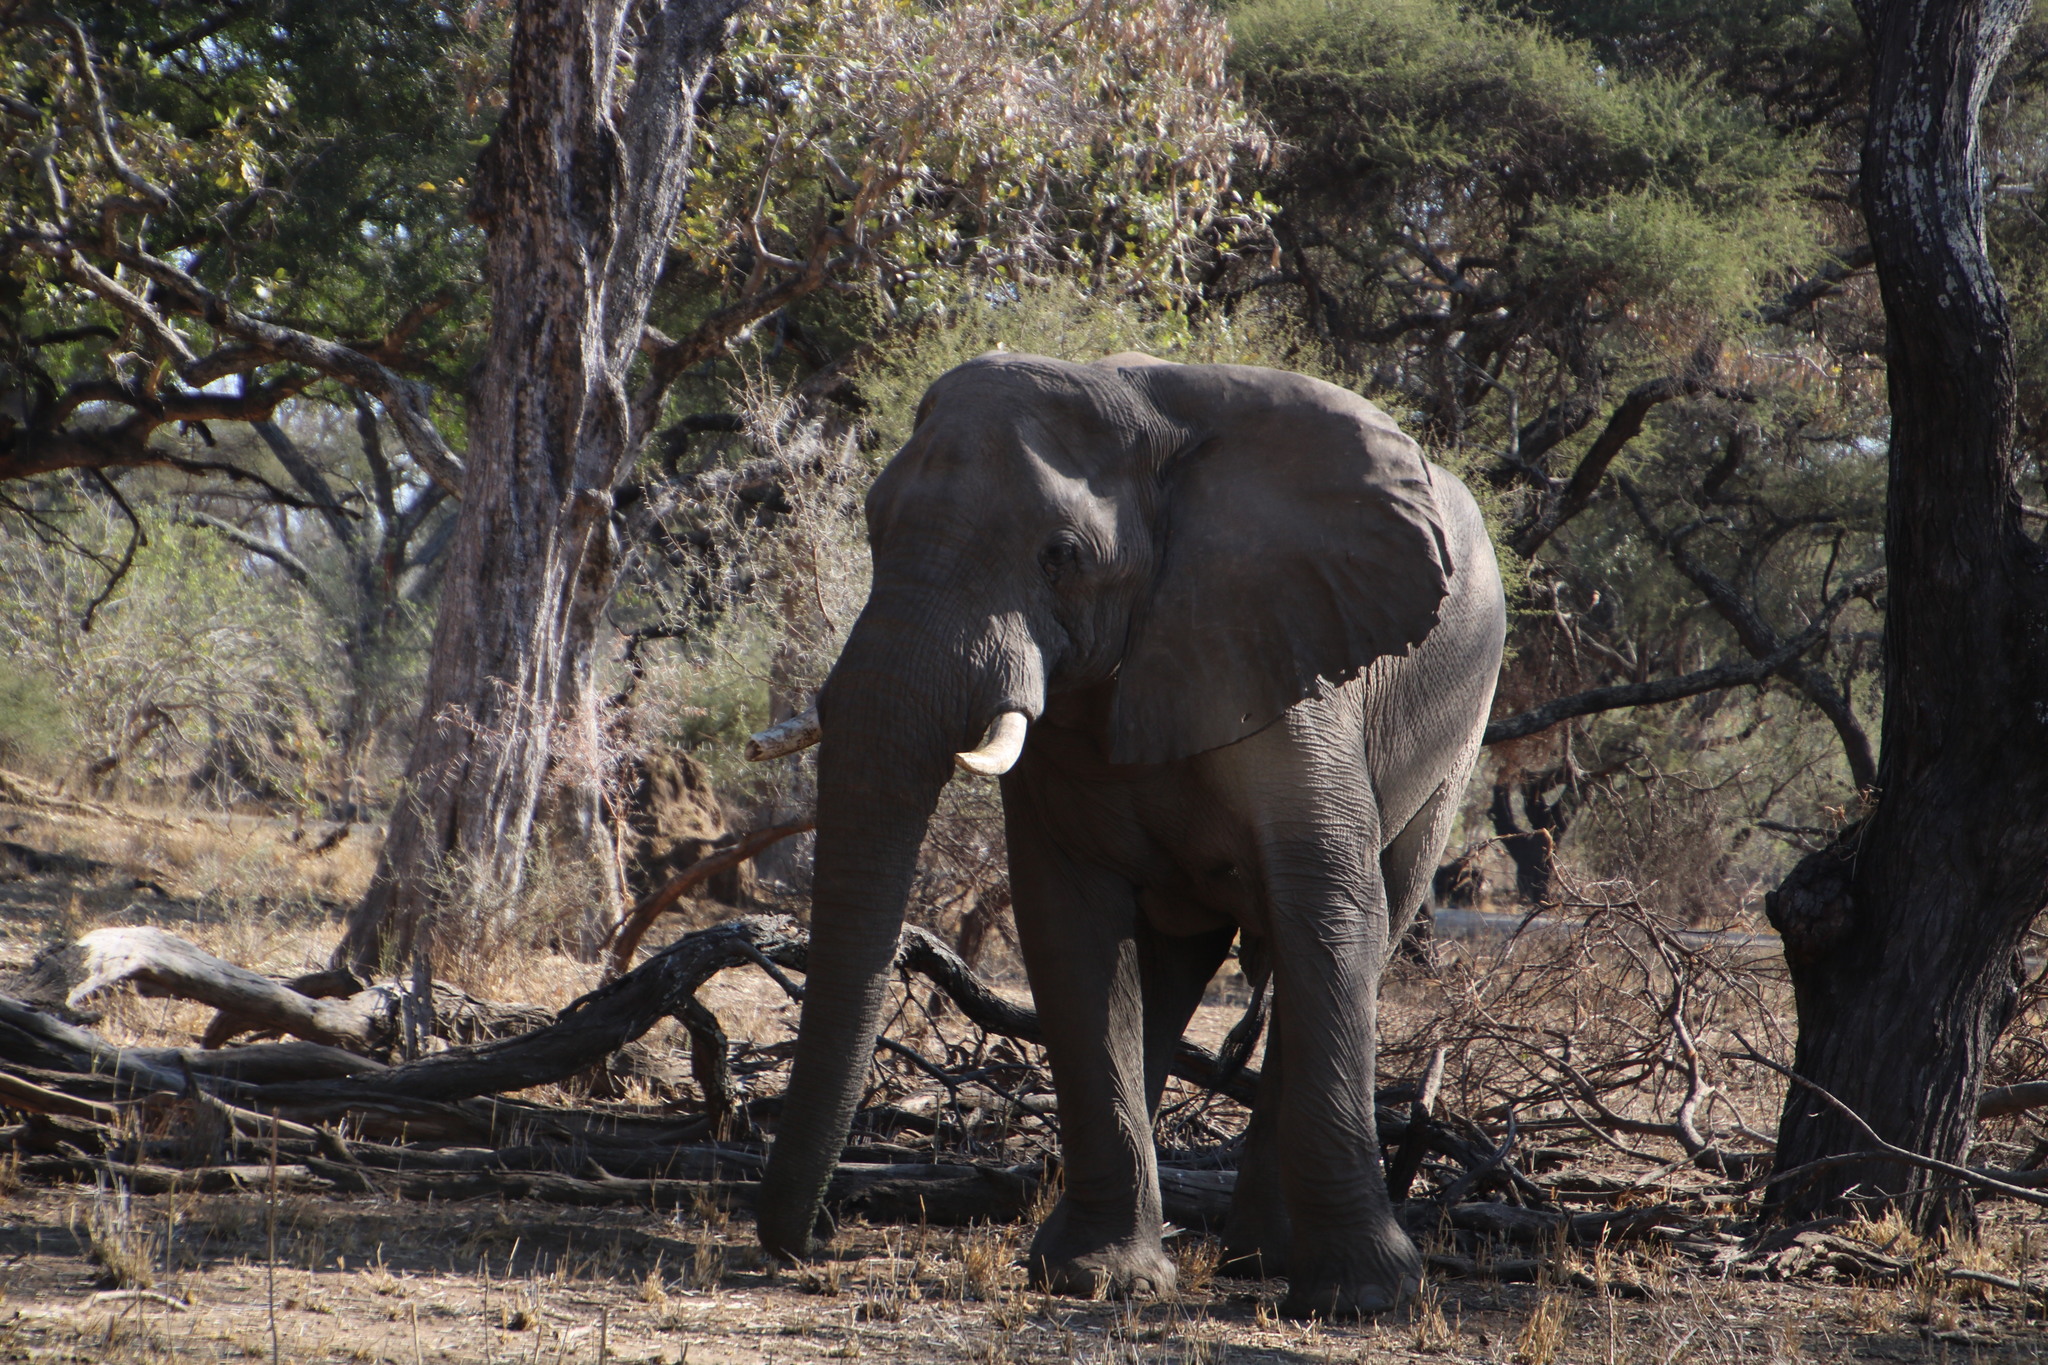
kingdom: Animalia
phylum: Chordata
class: Mammalia
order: Proboscidea
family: Elephantidae
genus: Loxodonta
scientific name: Loxodonta africana
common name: African elephant
